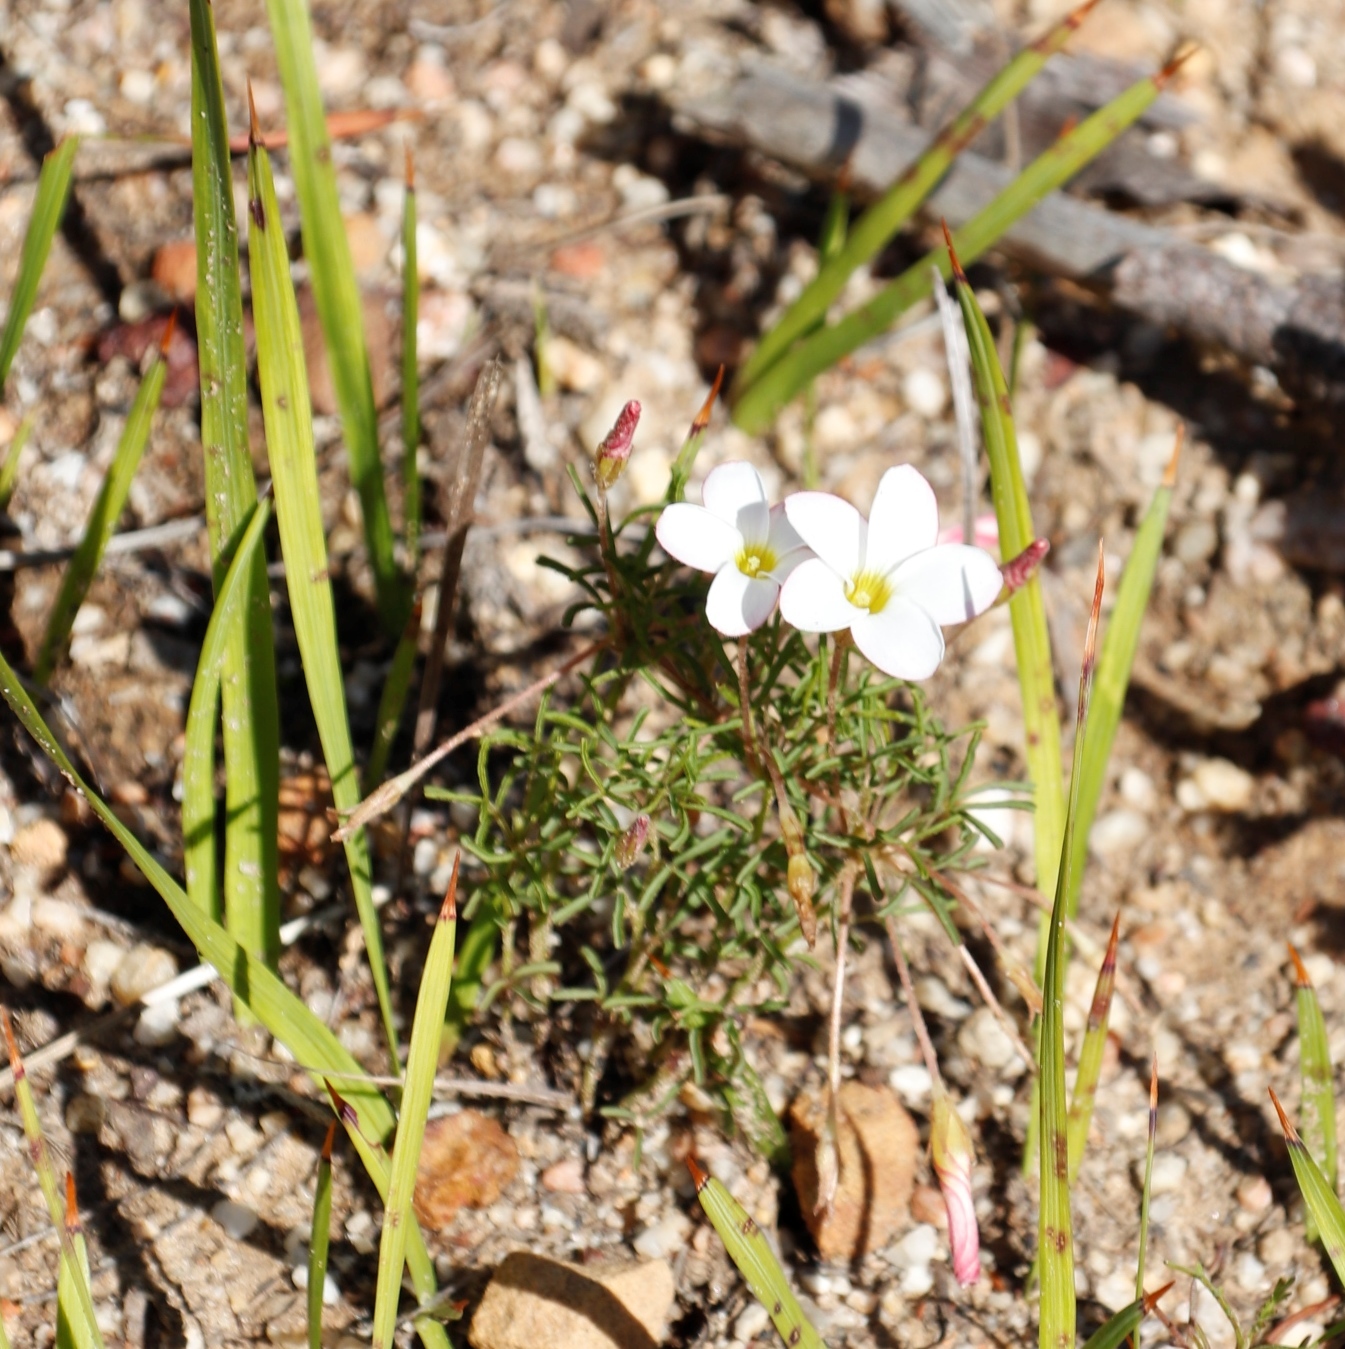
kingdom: Plantae
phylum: Tracheophyta
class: Magnoliopsida
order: Oxalidales
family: Oxalidaceae
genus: Oxalis
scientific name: Oxalis versicolor
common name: Peppermint rock oxalis
